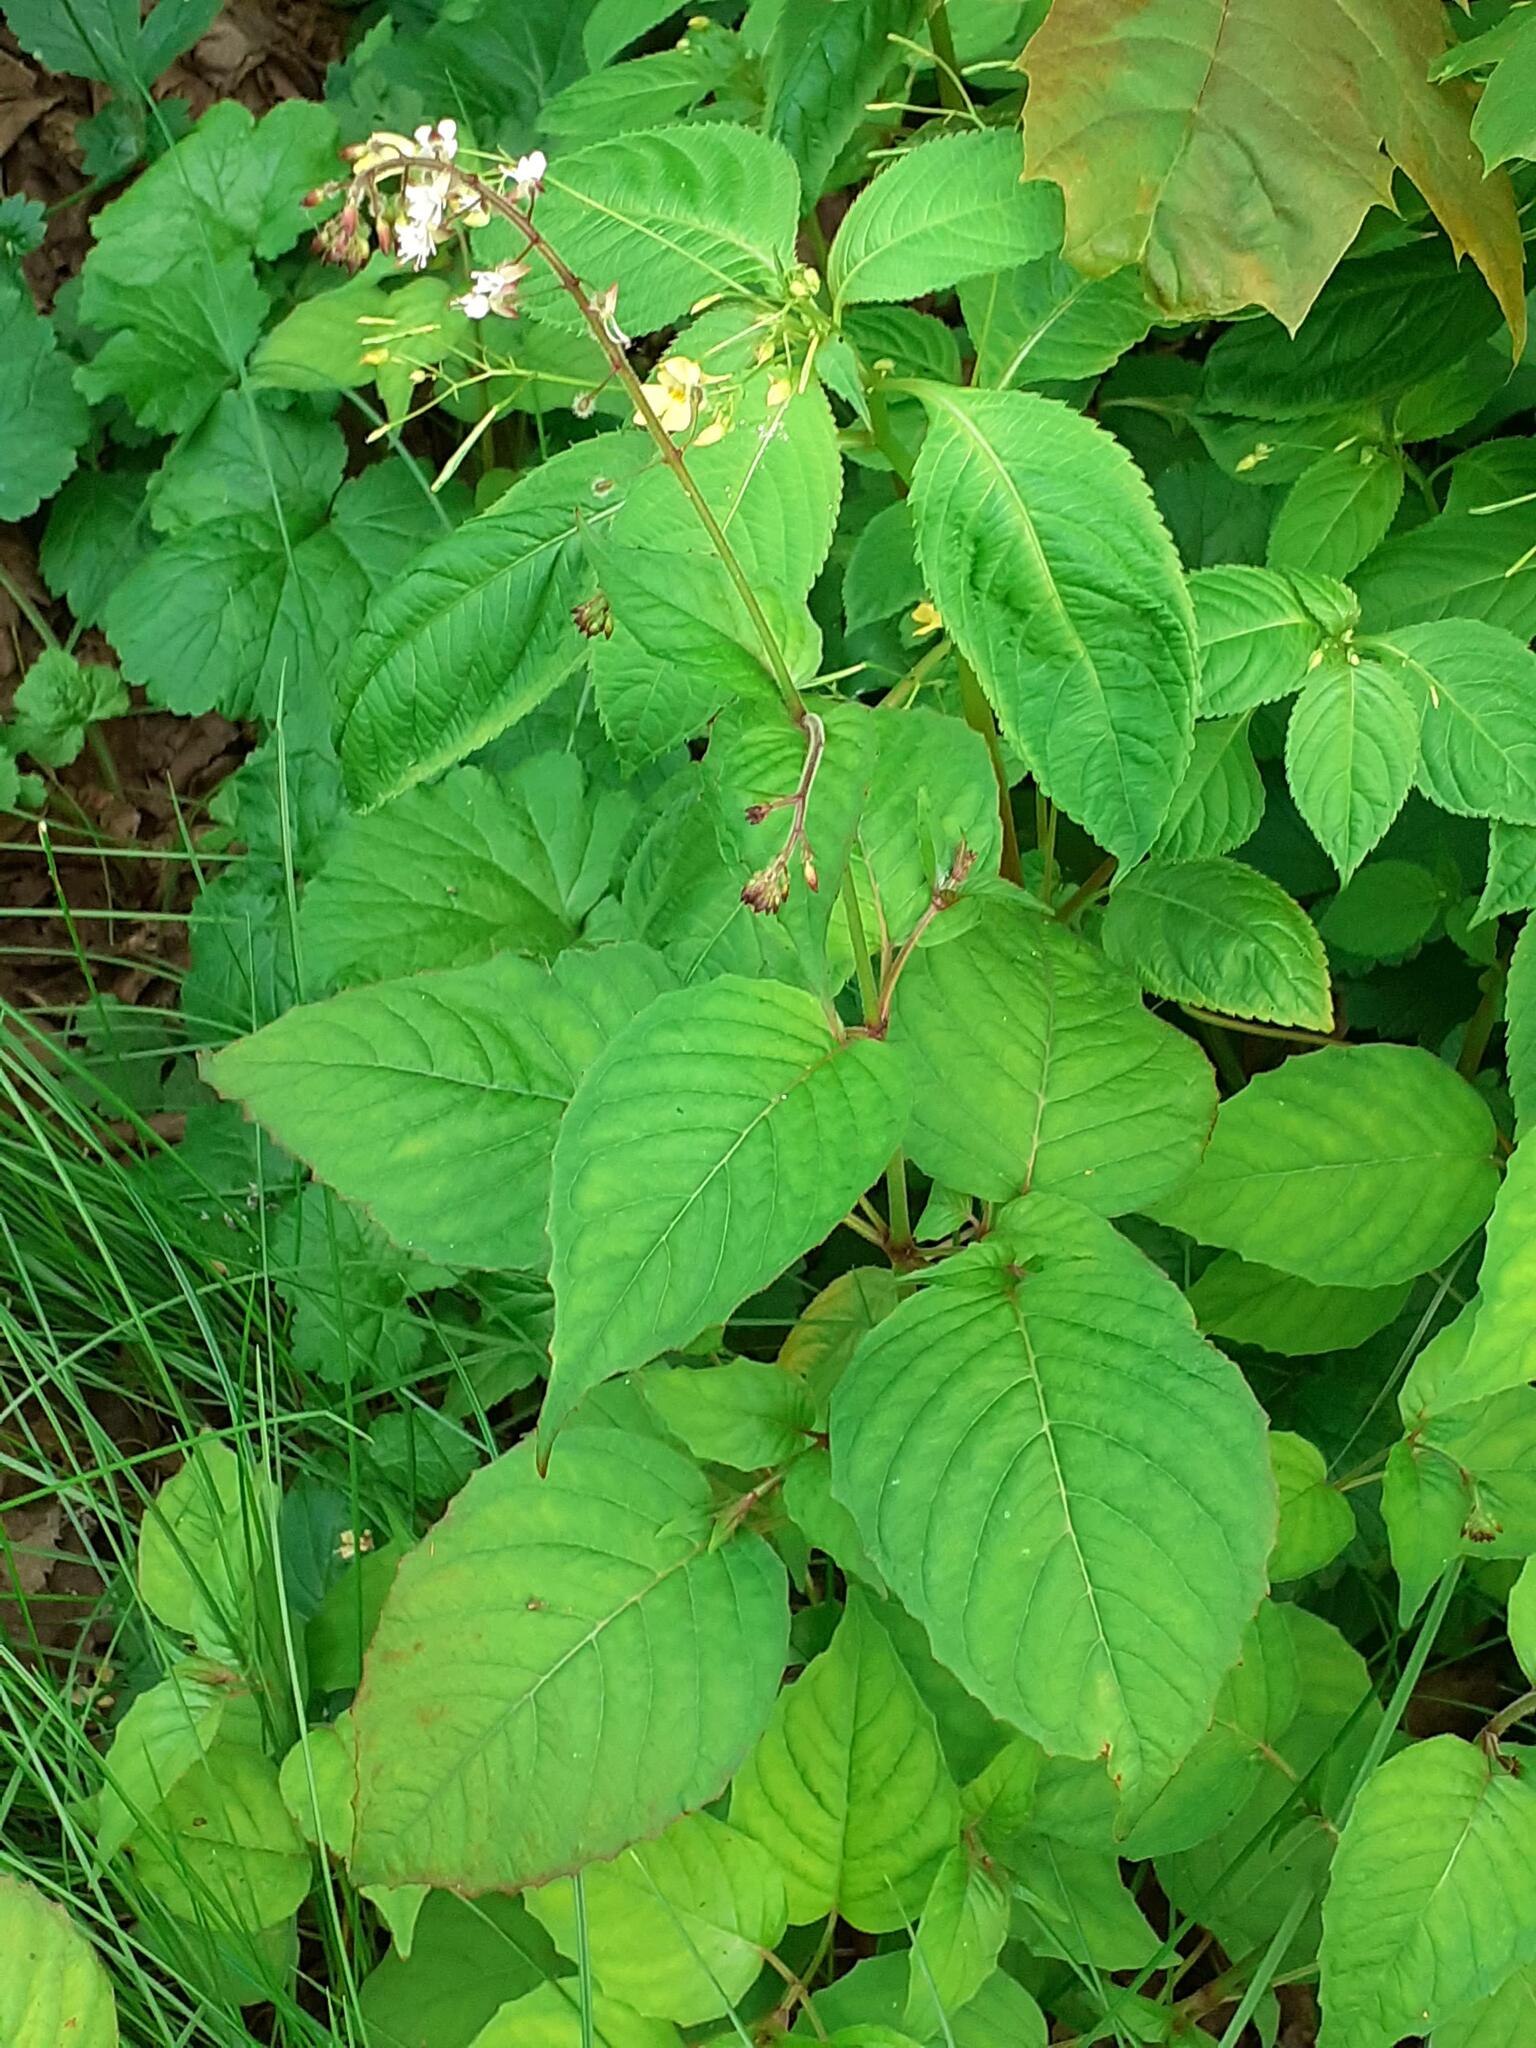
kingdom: Plantae
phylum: Tracheophyta
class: Magnoliopsida
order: Myrtales
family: Onagraceae
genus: Circaea
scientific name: Circaea lutetiana
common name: Enchanter's-nightshade
